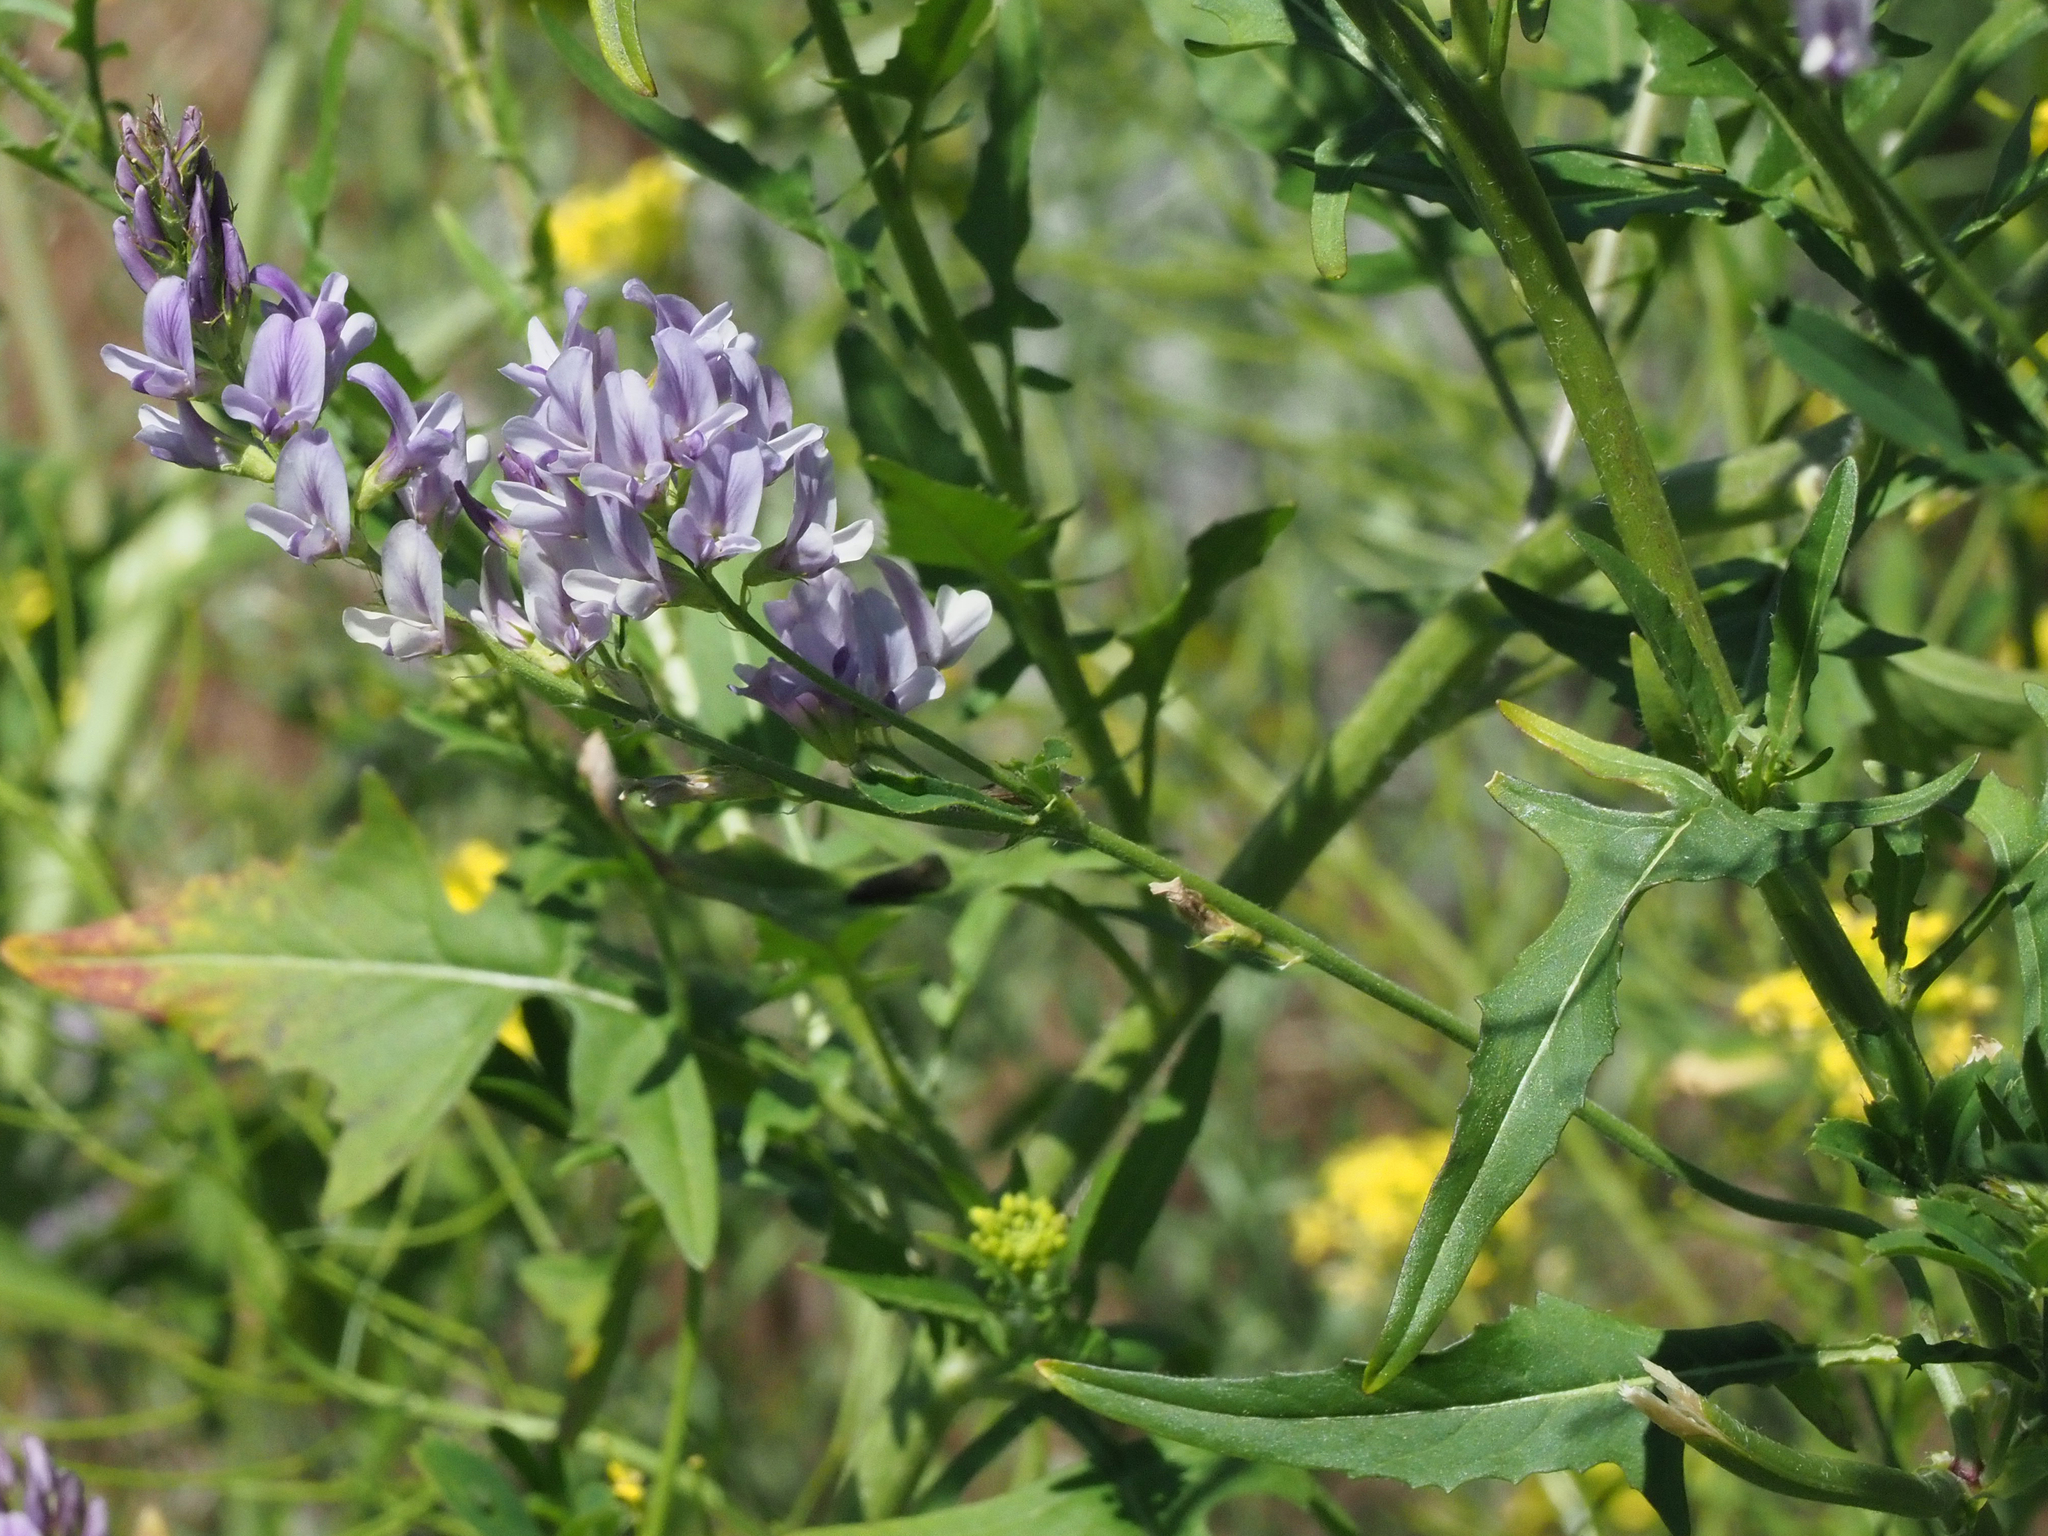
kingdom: Plantae
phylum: Tracheophyta
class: Magnoliopsida
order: Fabales
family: Fabaceae
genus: Astragalus
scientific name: Astragalus miser
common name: Timber milkvetch
